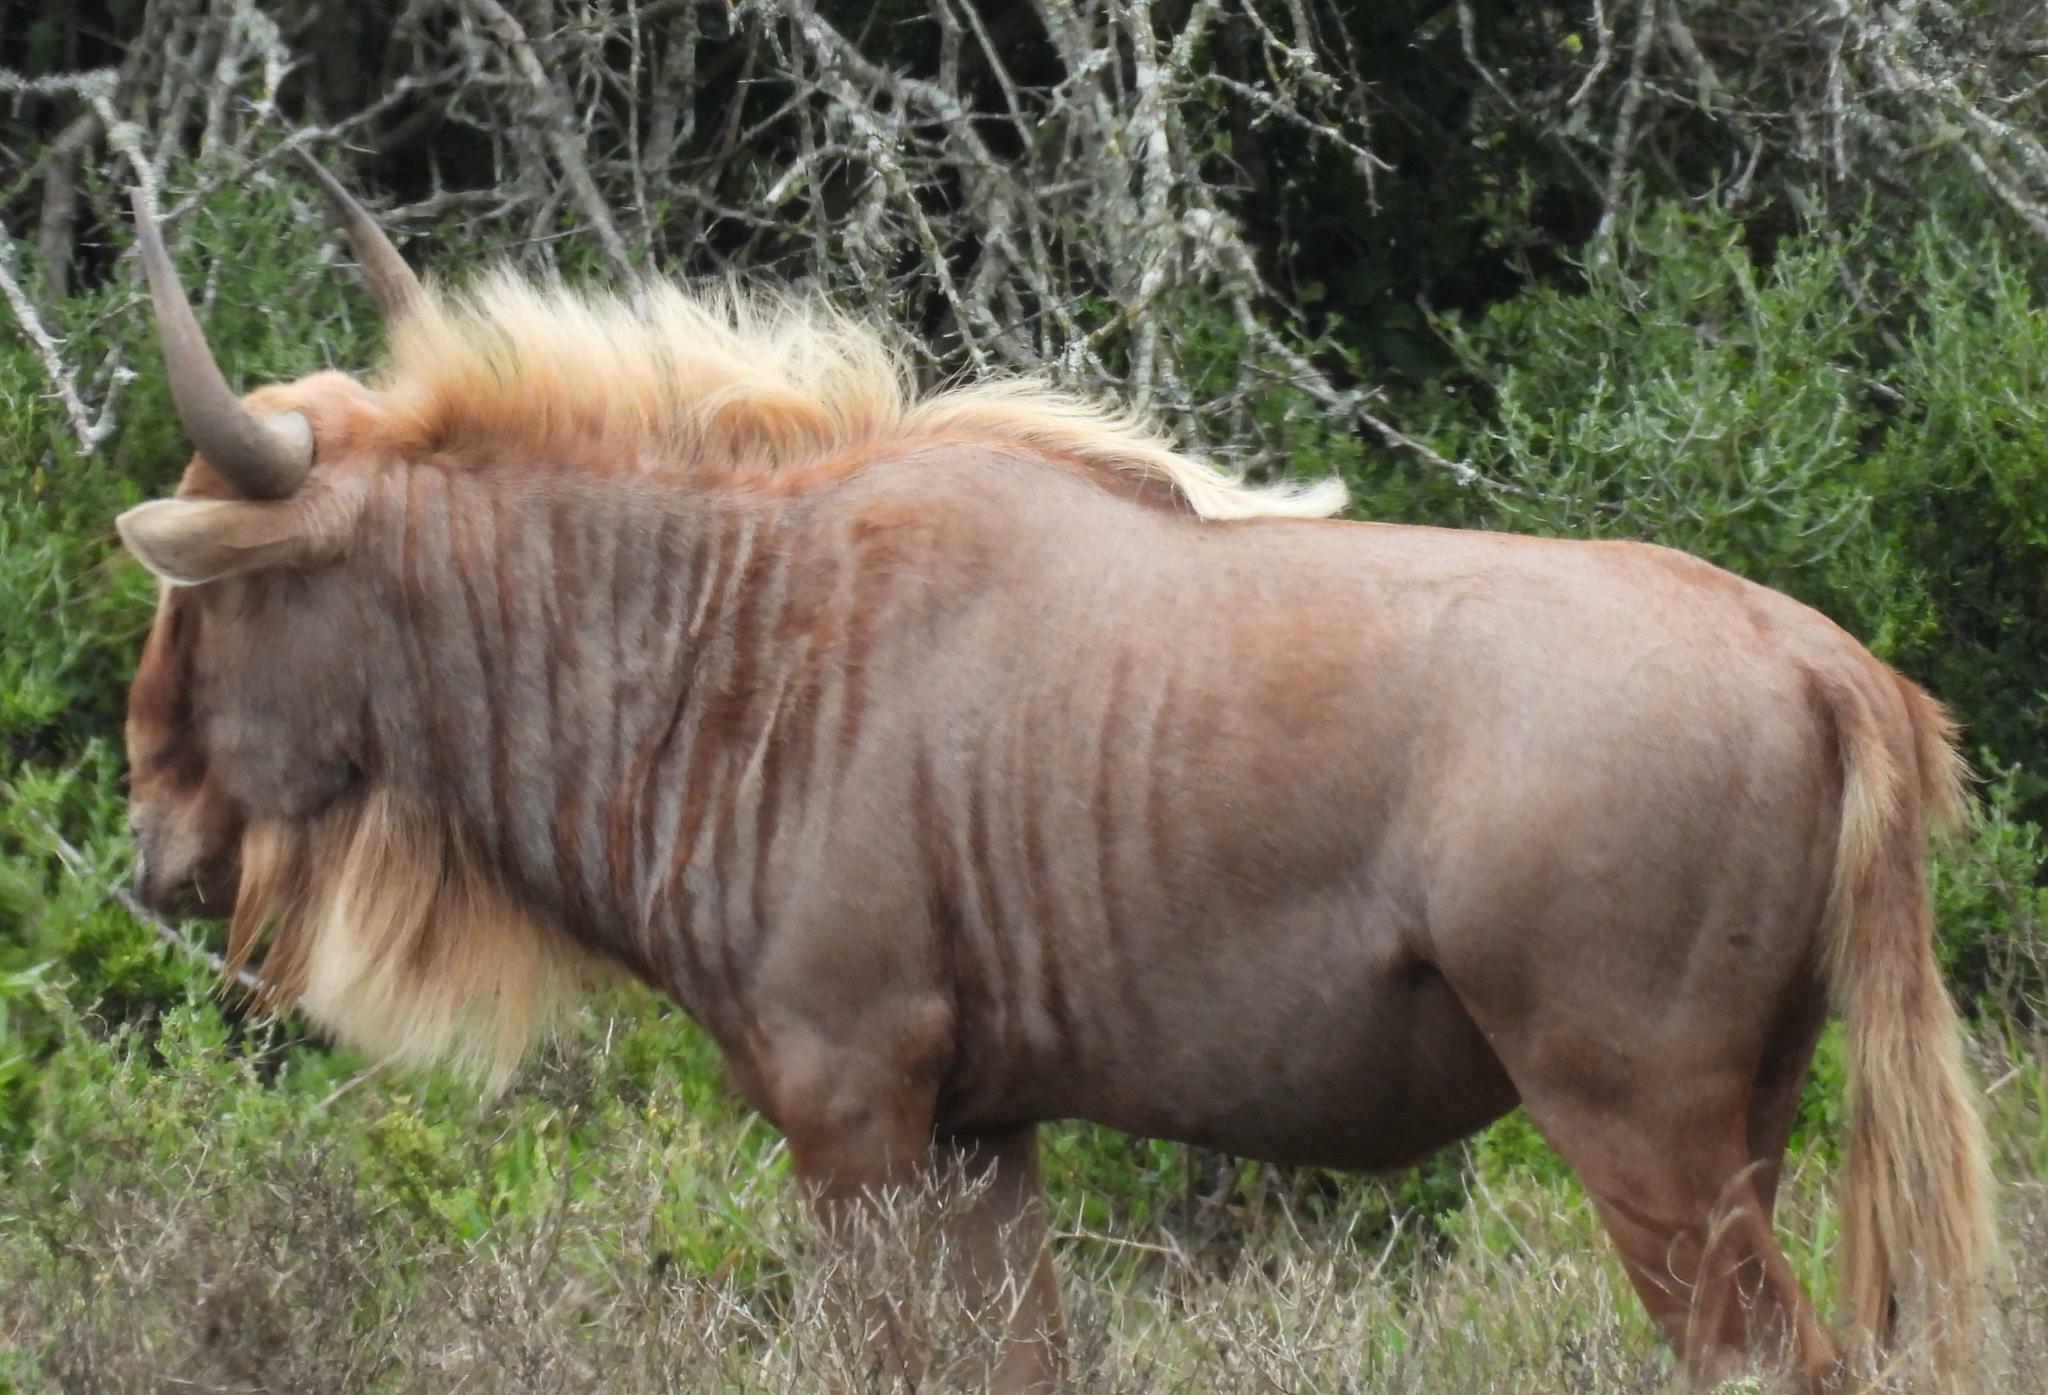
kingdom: Animalia
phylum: Chordata
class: Mammalia
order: Artiodactyla
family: Bovidae
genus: Connochaetes
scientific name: Connochaetes taurinus
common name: Blue wildebeest
